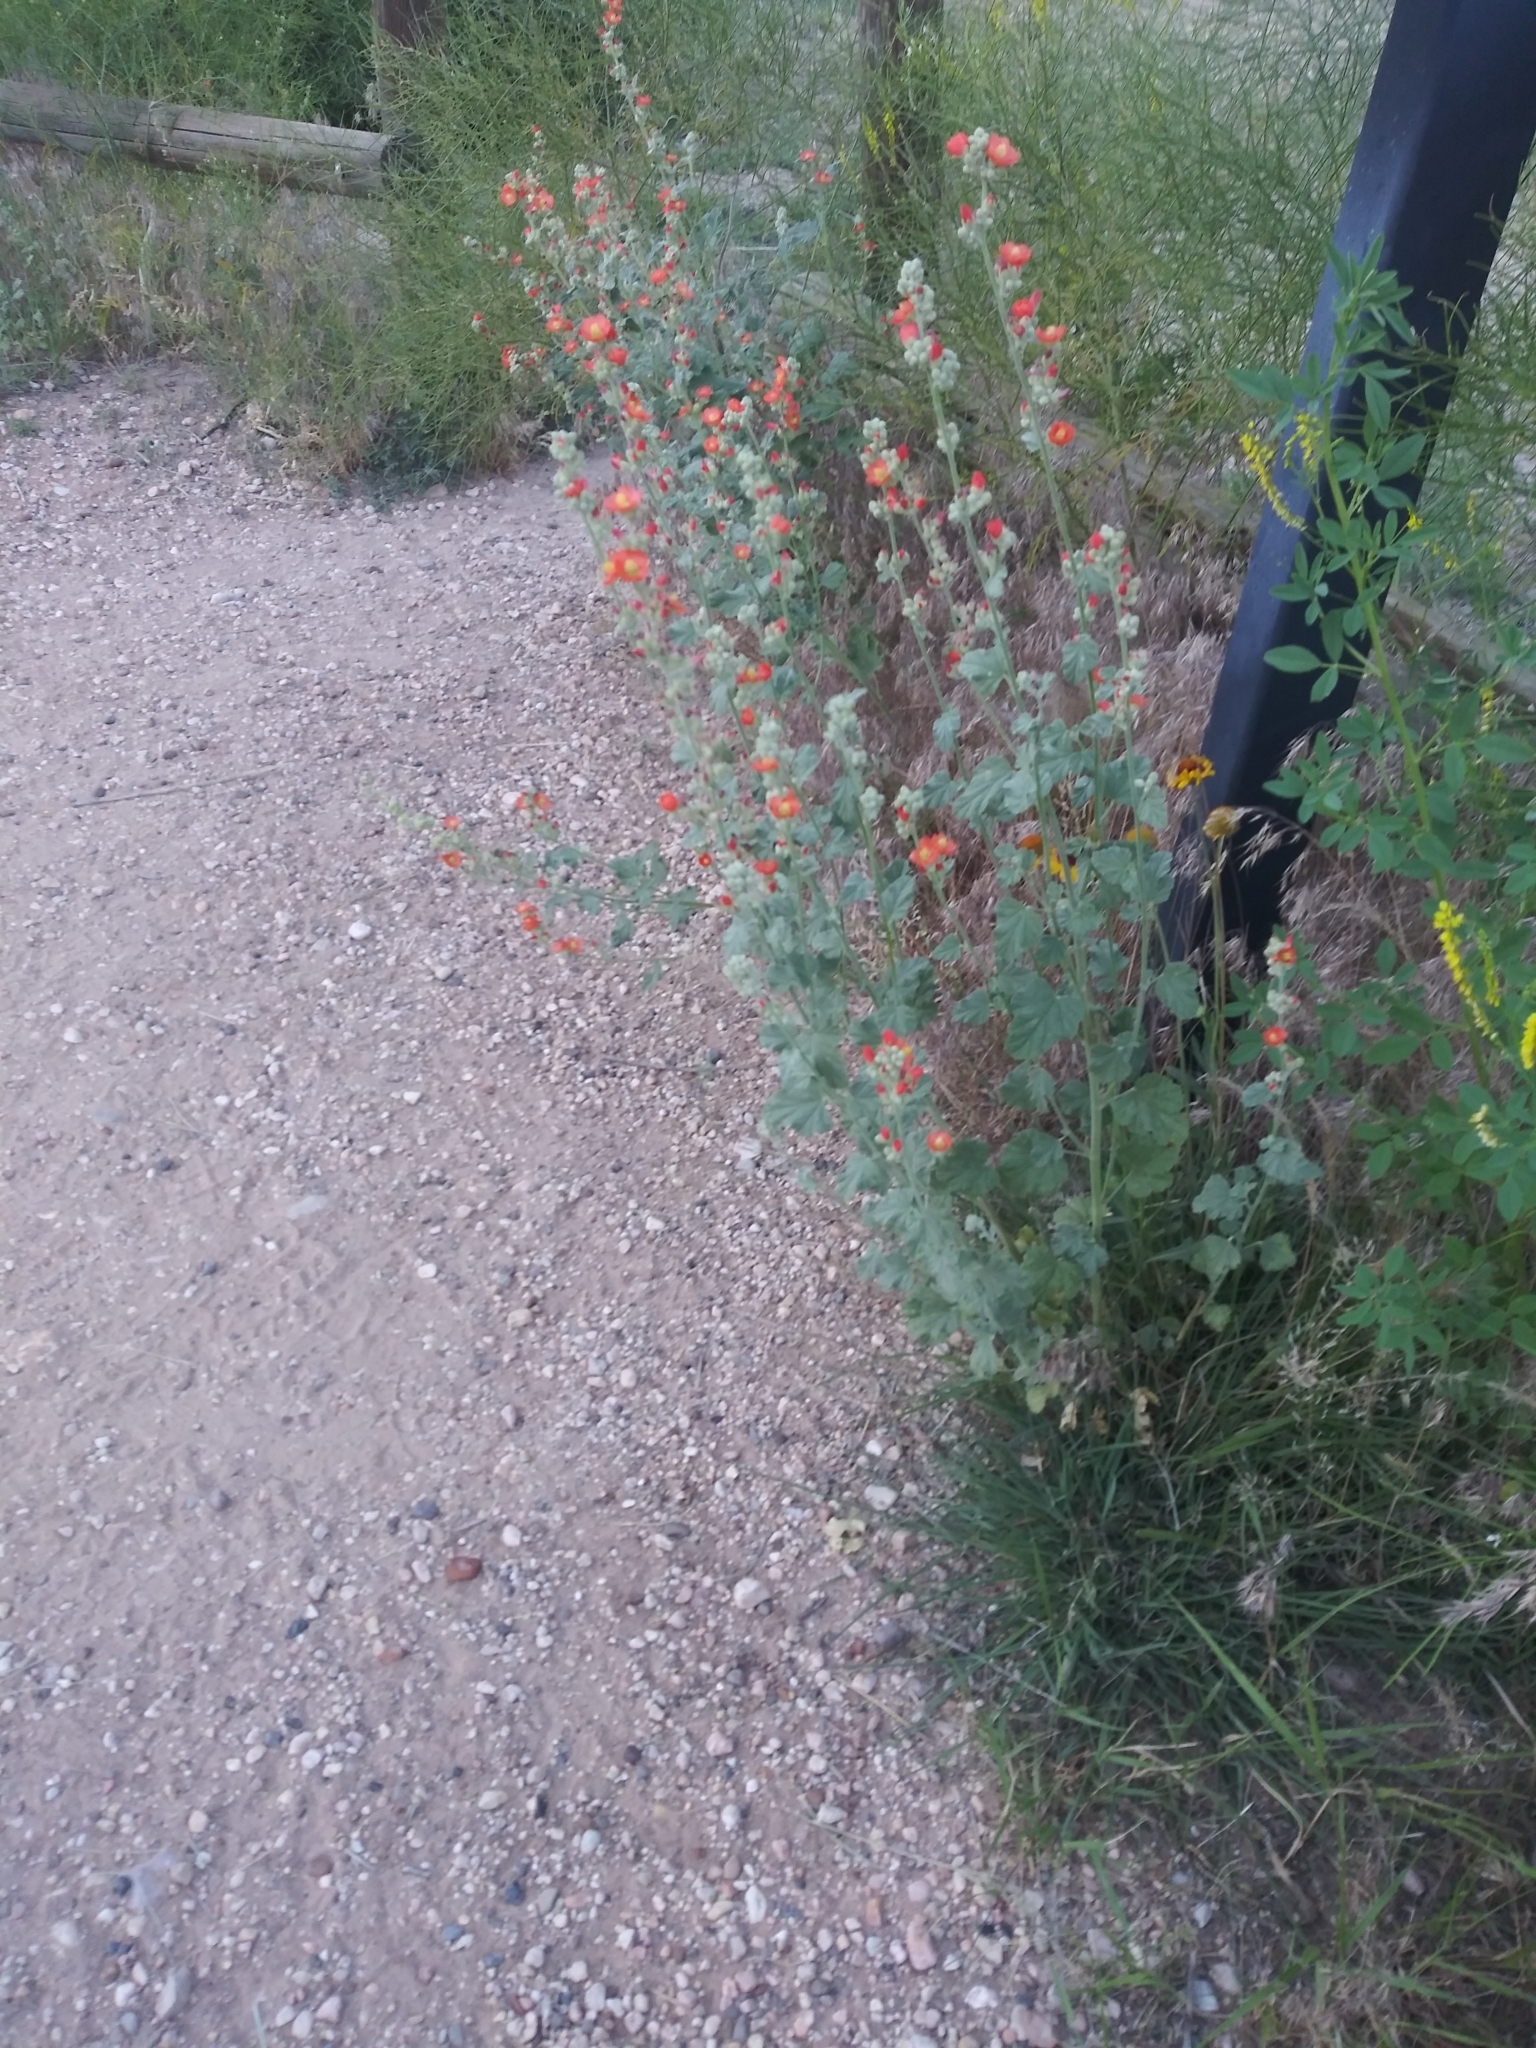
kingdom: Plantae
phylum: Tracheophyta
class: Magnoliopsida
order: Malvales
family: Malvaceae
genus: Sphaeralcea
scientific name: Sphaeralcea parvifolia
